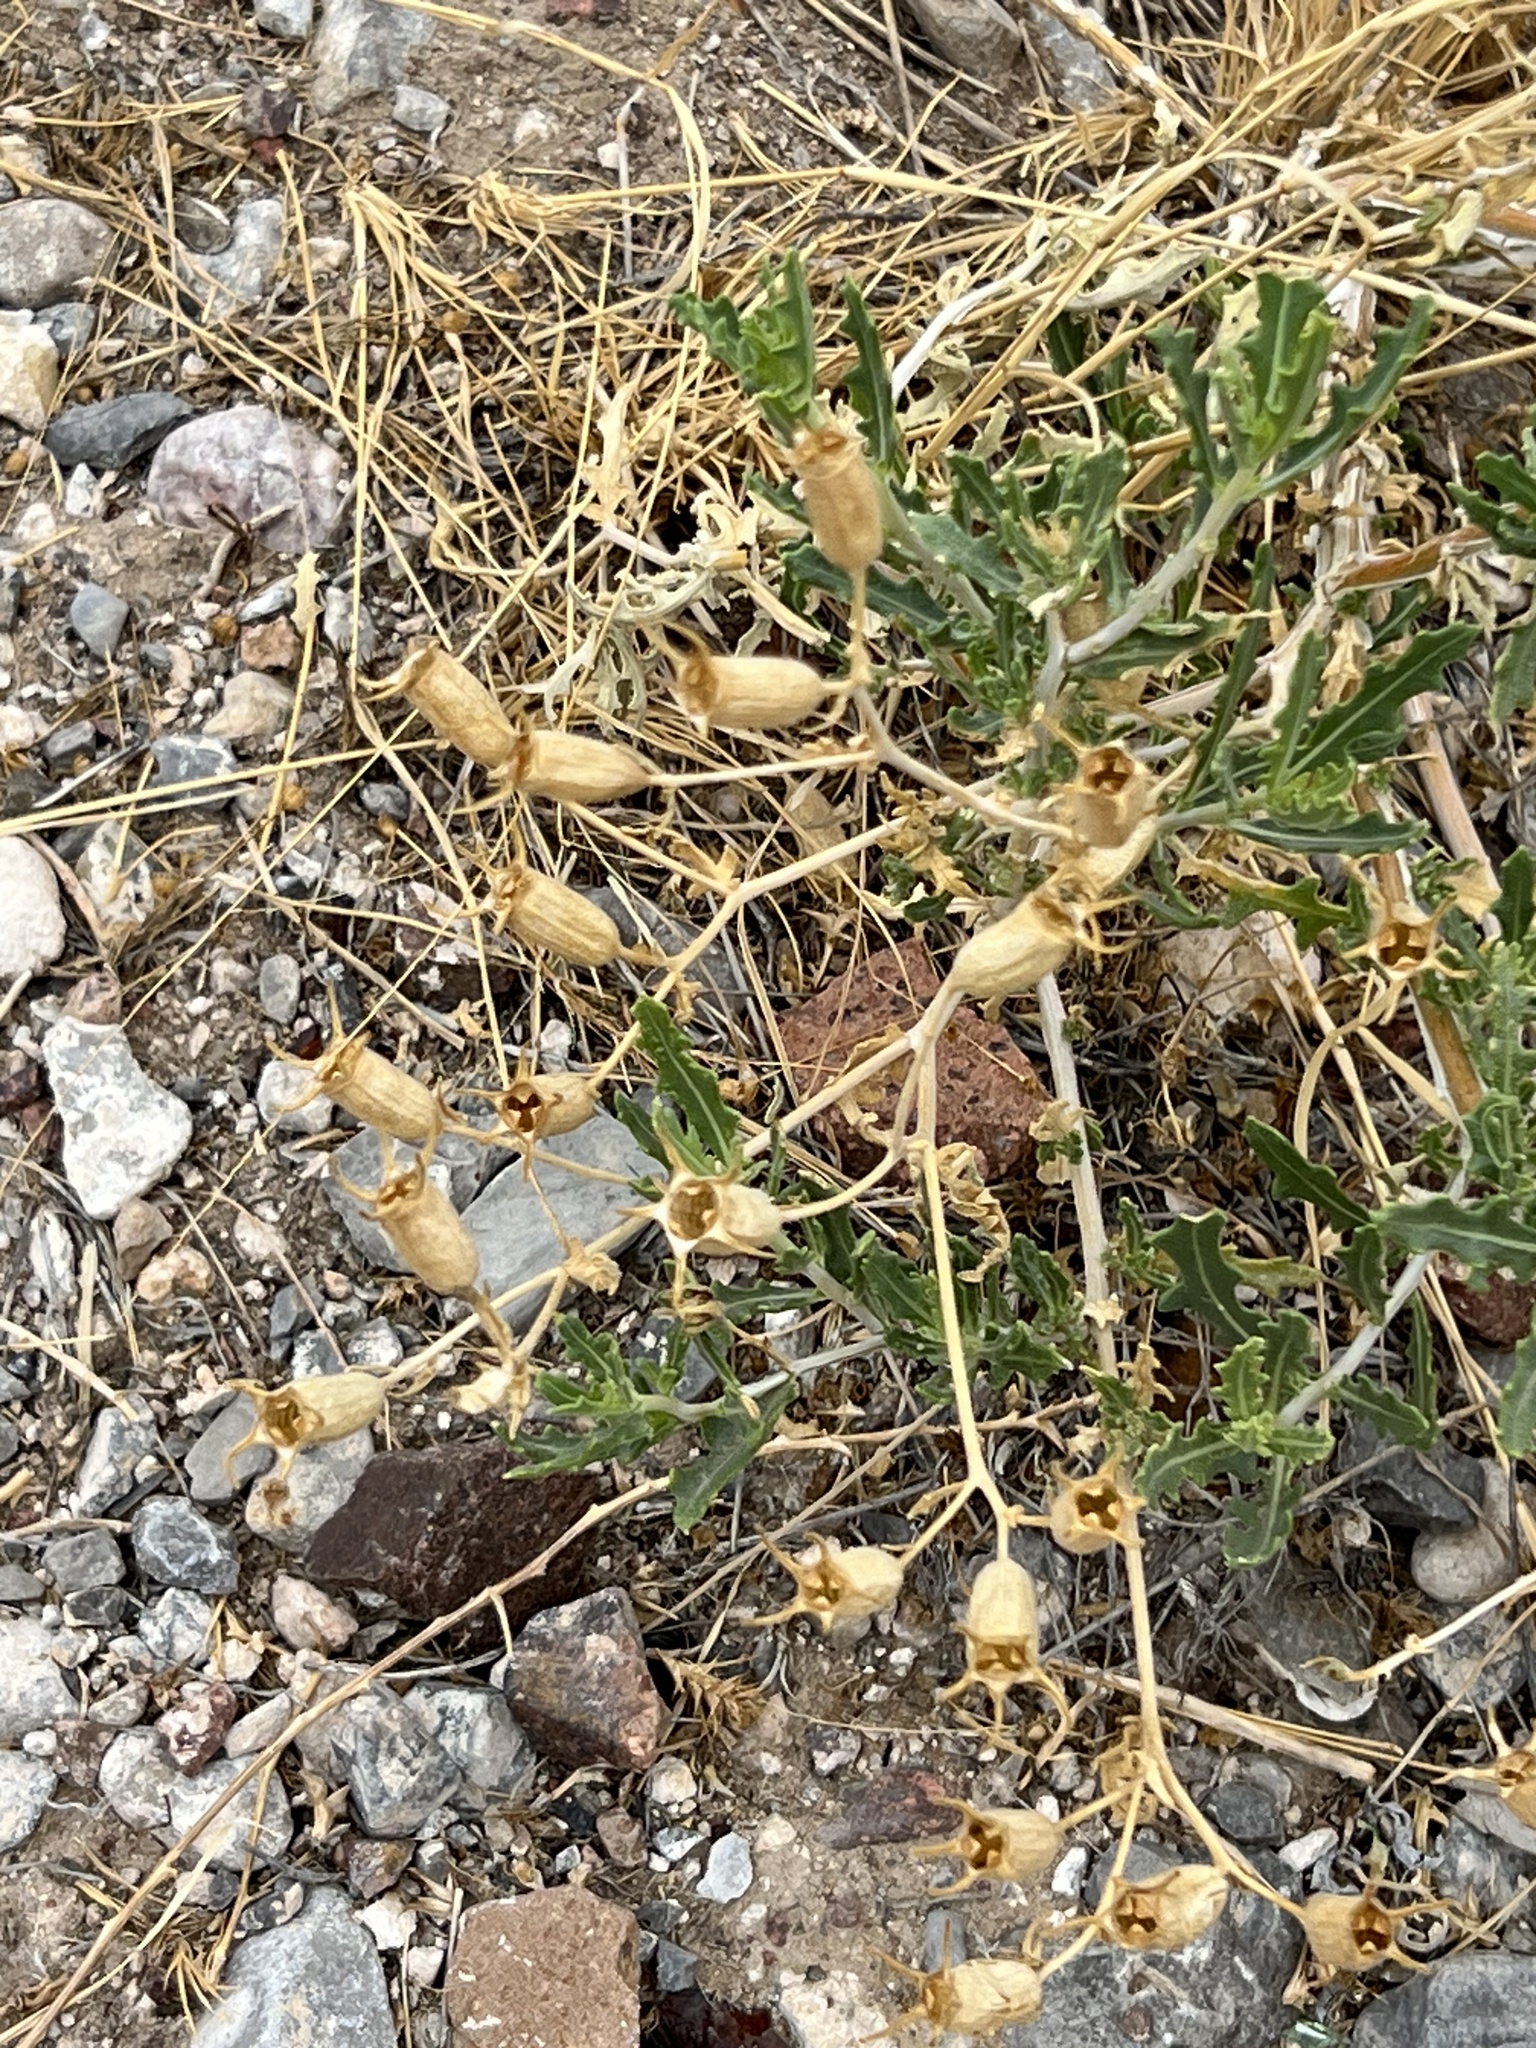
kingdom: Plantae
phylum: Tracheophyta
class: Magnoliopsida
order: Cornales
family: Loasaceae
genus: Mentzelia
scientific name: Mentzelia longiloba
